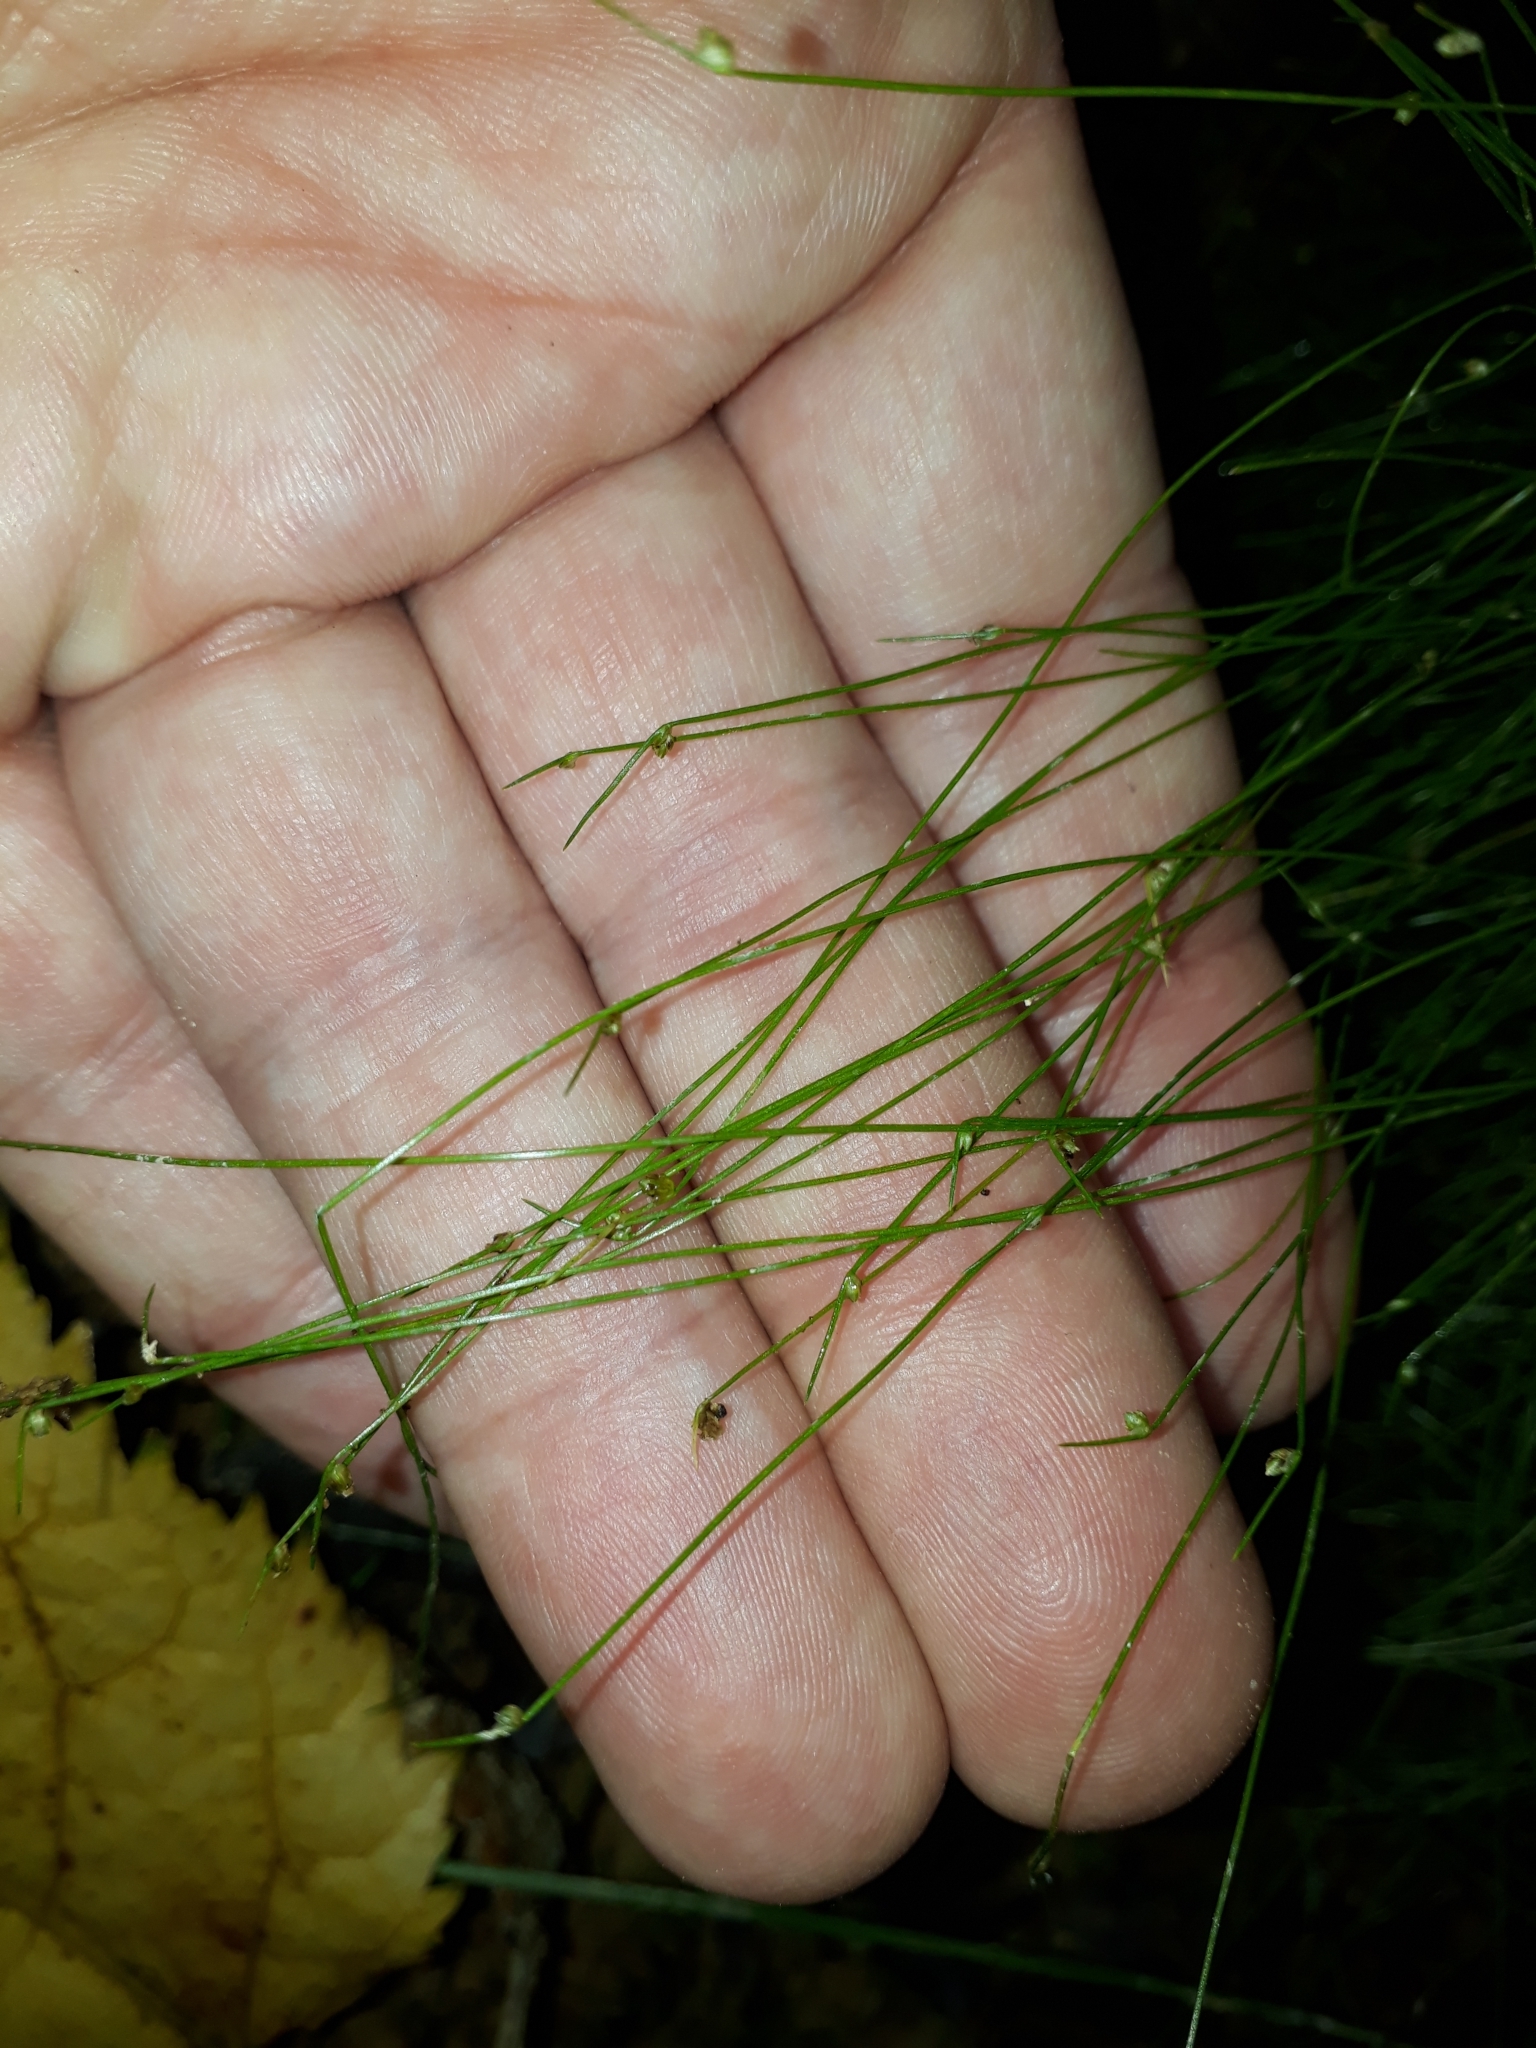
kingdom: Plantae
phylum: Tracheophyta
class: Liliopsida
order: Poales
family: Cyperaceae
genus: Isolepis
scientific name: Isolepis reticularis
